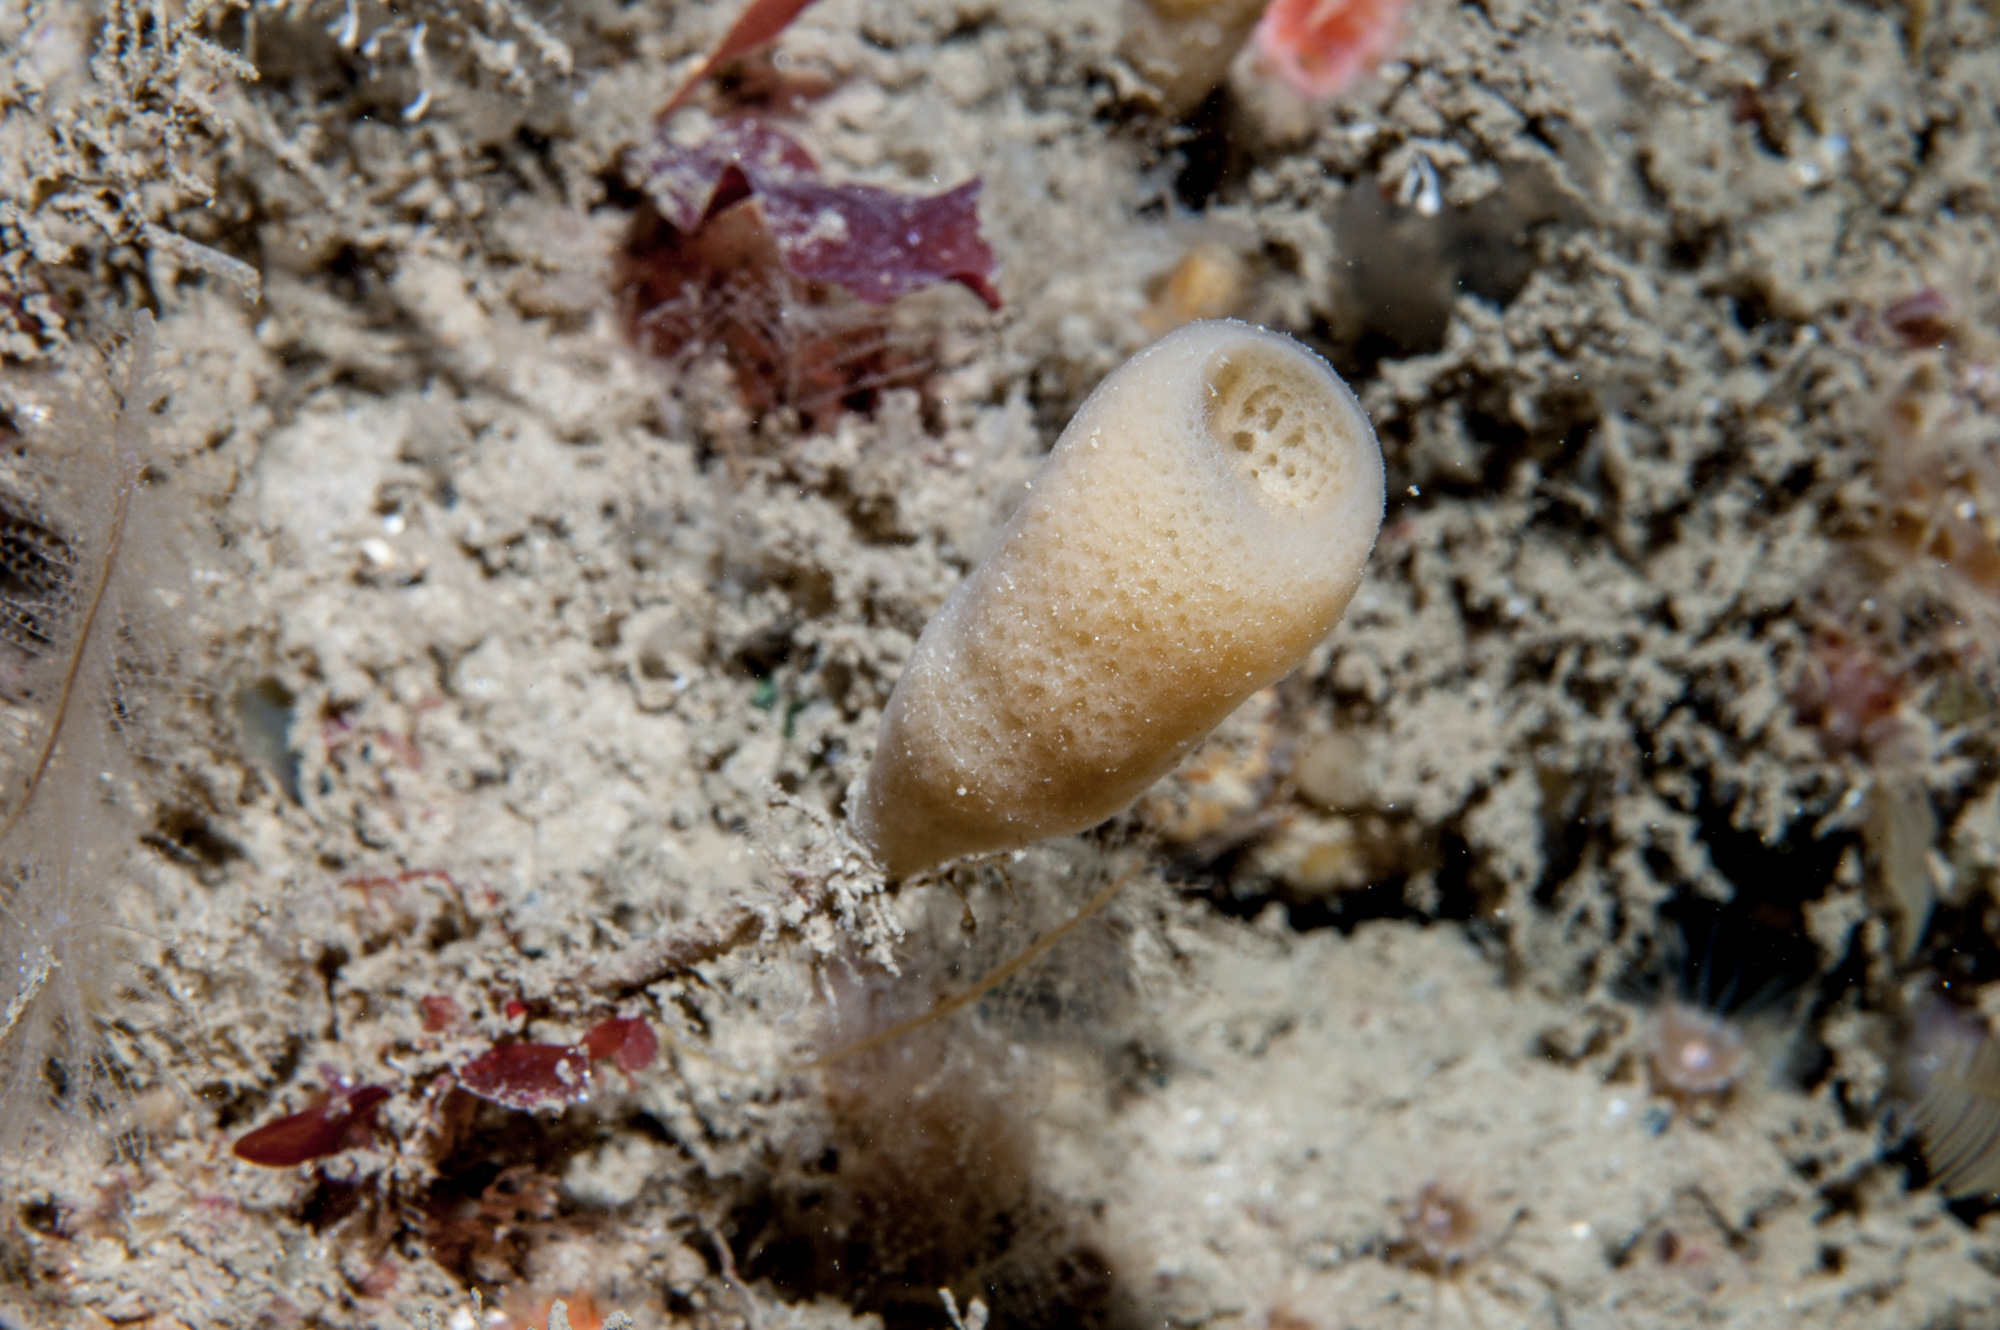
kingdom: Animalia
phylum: Porifera
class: Demospongiae
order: Haplosclerida
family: Chalinidae
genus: Haliclona
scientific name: Haliclona urceolus
